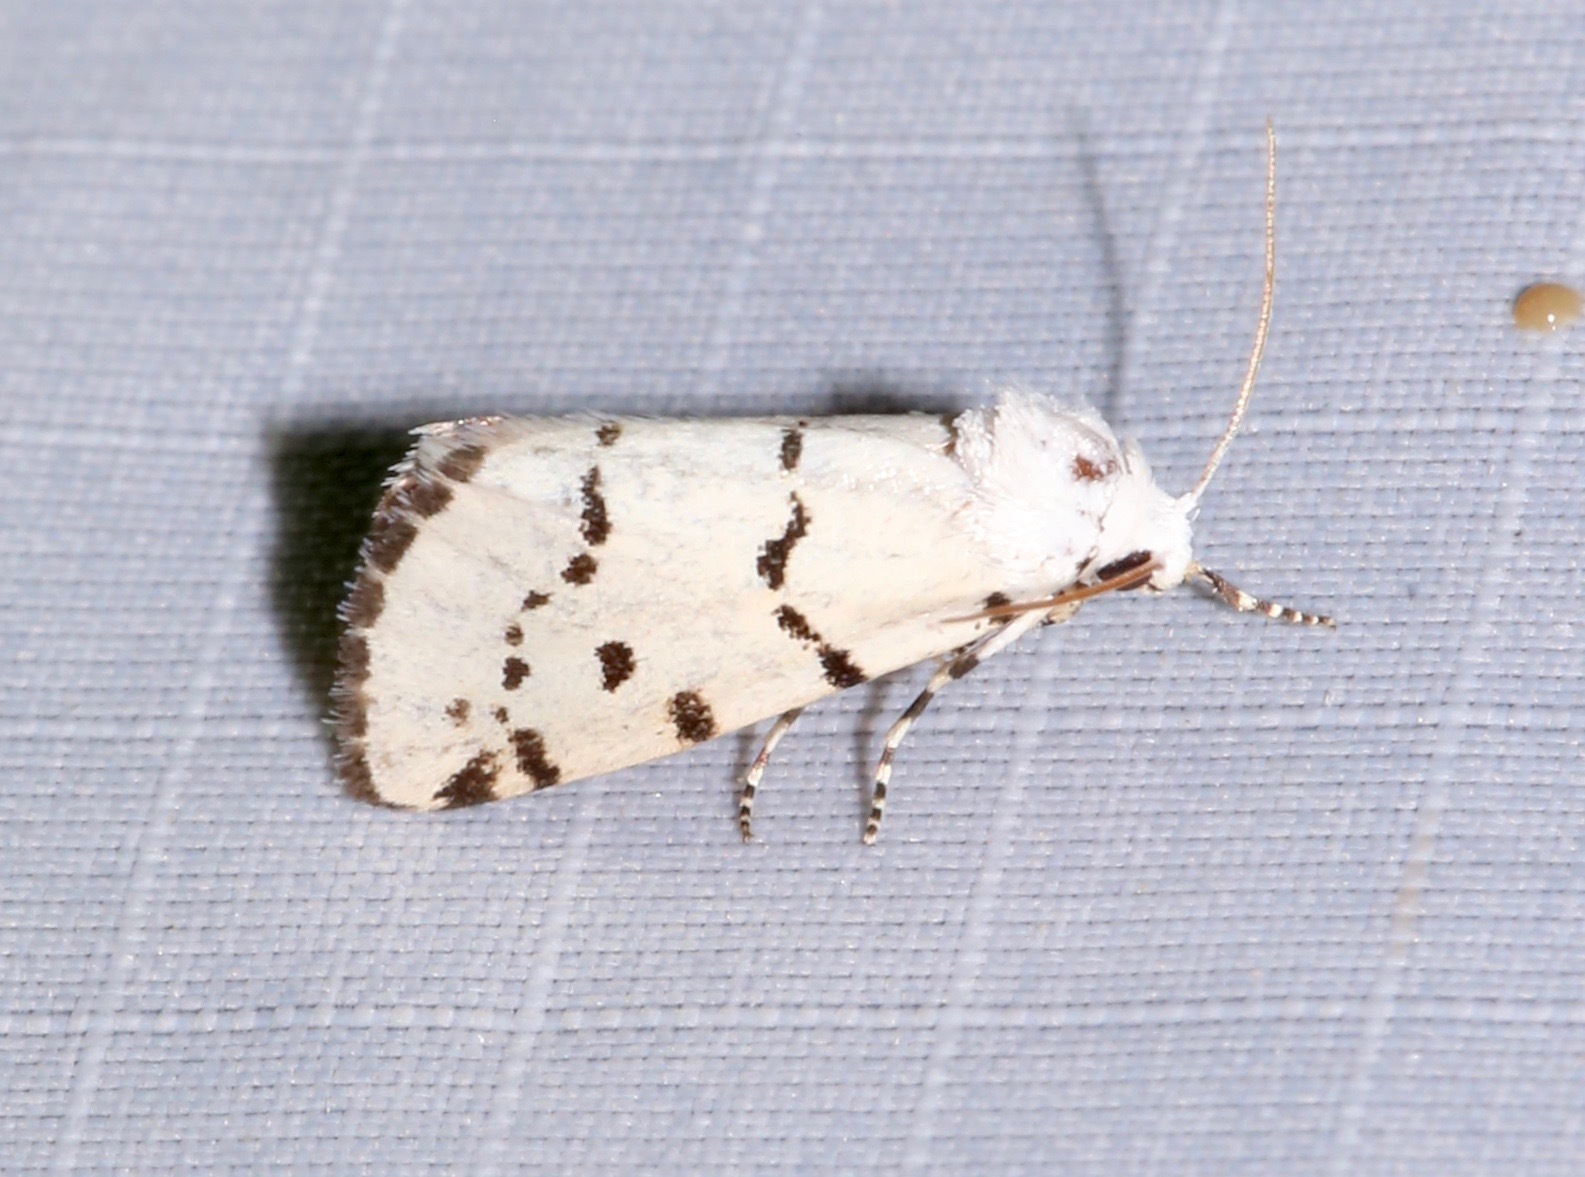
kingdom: Animalia
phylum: Arthropoda
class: Insecta
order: Lepidoptera
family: Noctuidae
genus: Grotella
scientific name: Grotella binda
